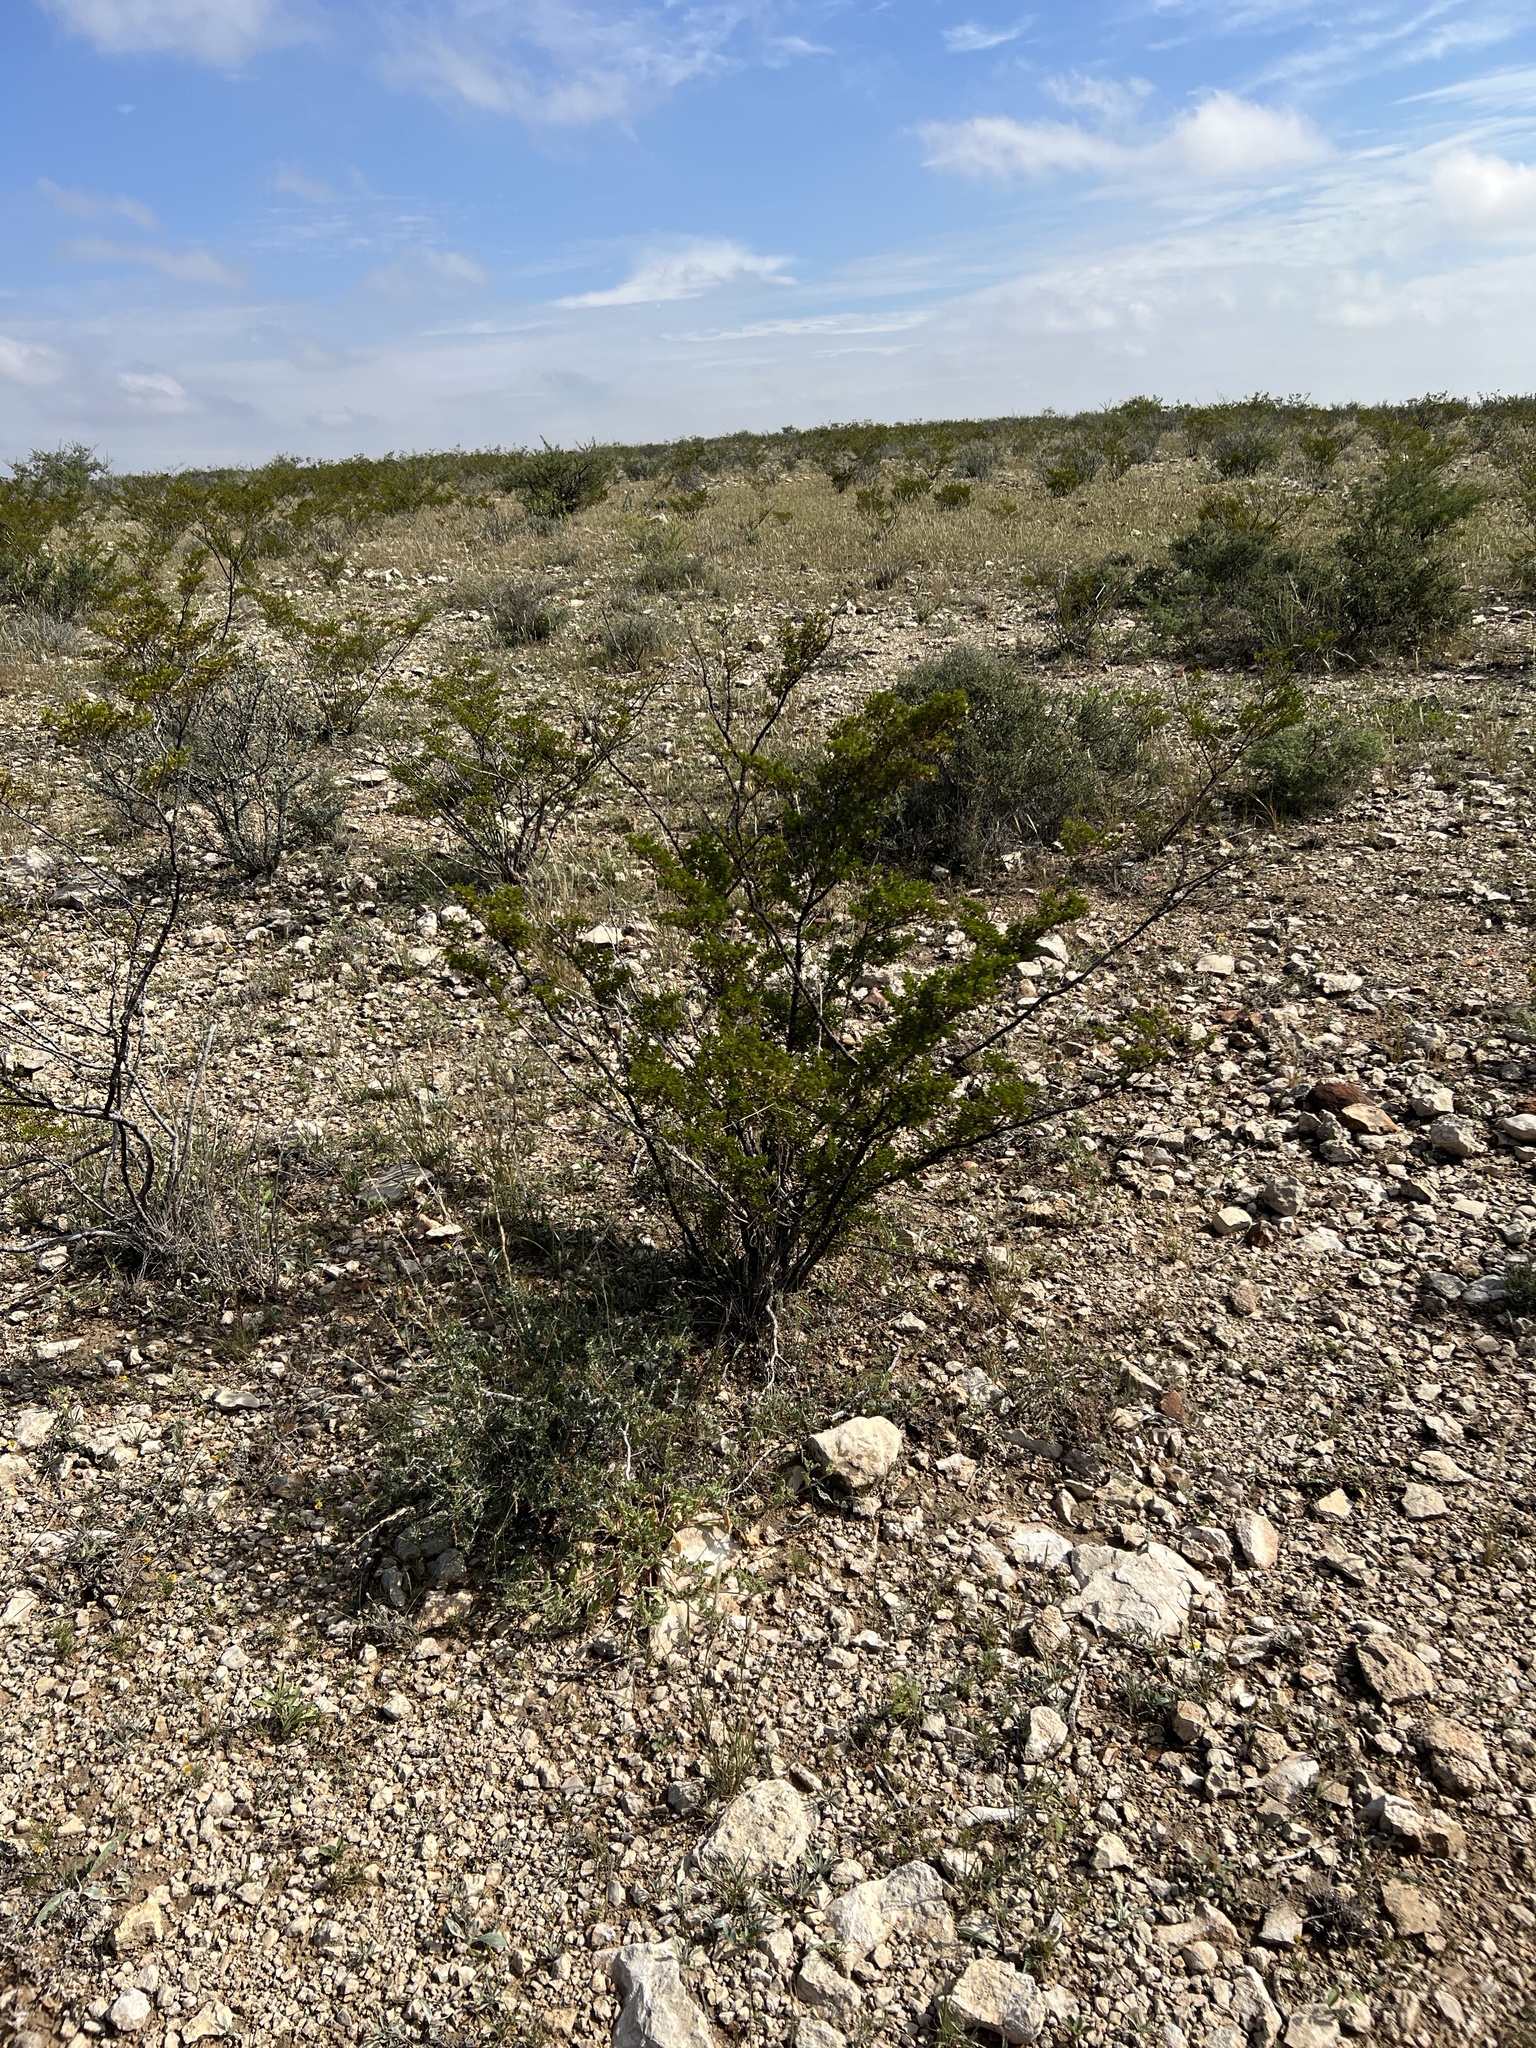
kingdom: Plantae
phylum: Tracheophyta
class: Magnoliopsida
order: Zygophyllales
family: Zygophyllaceae
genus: Larrea
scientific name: Larrea tridentata
